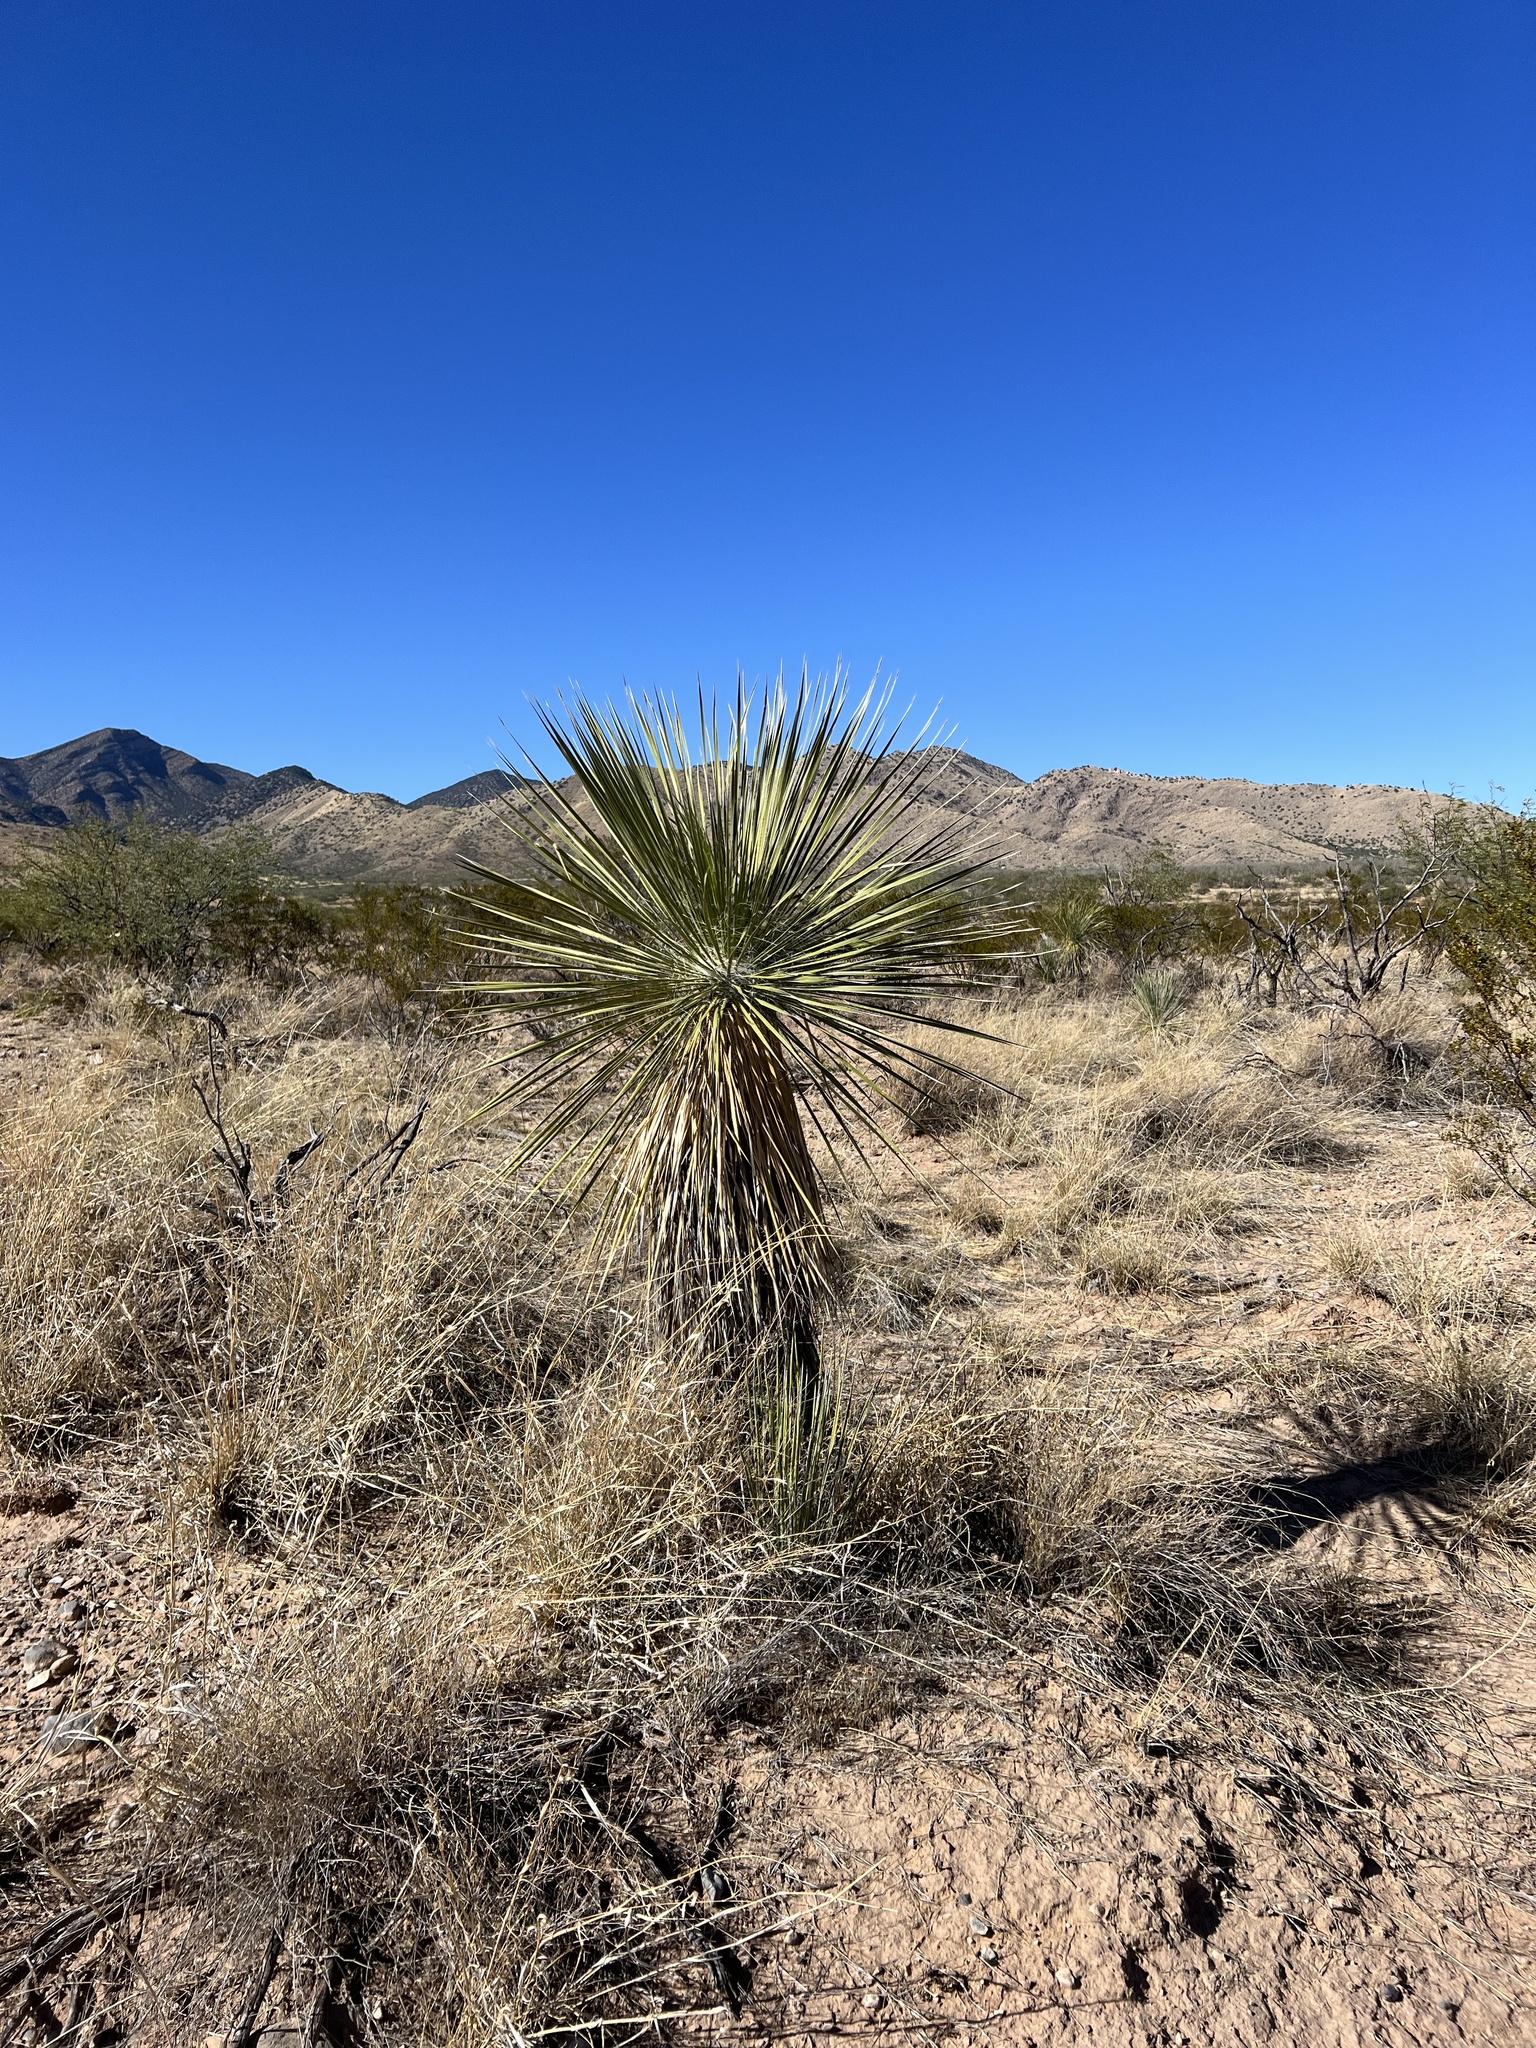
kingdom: Plantae
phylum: Tracheophyta
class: Liliopsida
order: Asparagales
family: Asparagaceae
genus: Yucca
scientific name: Yucca elata
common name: Palmella
